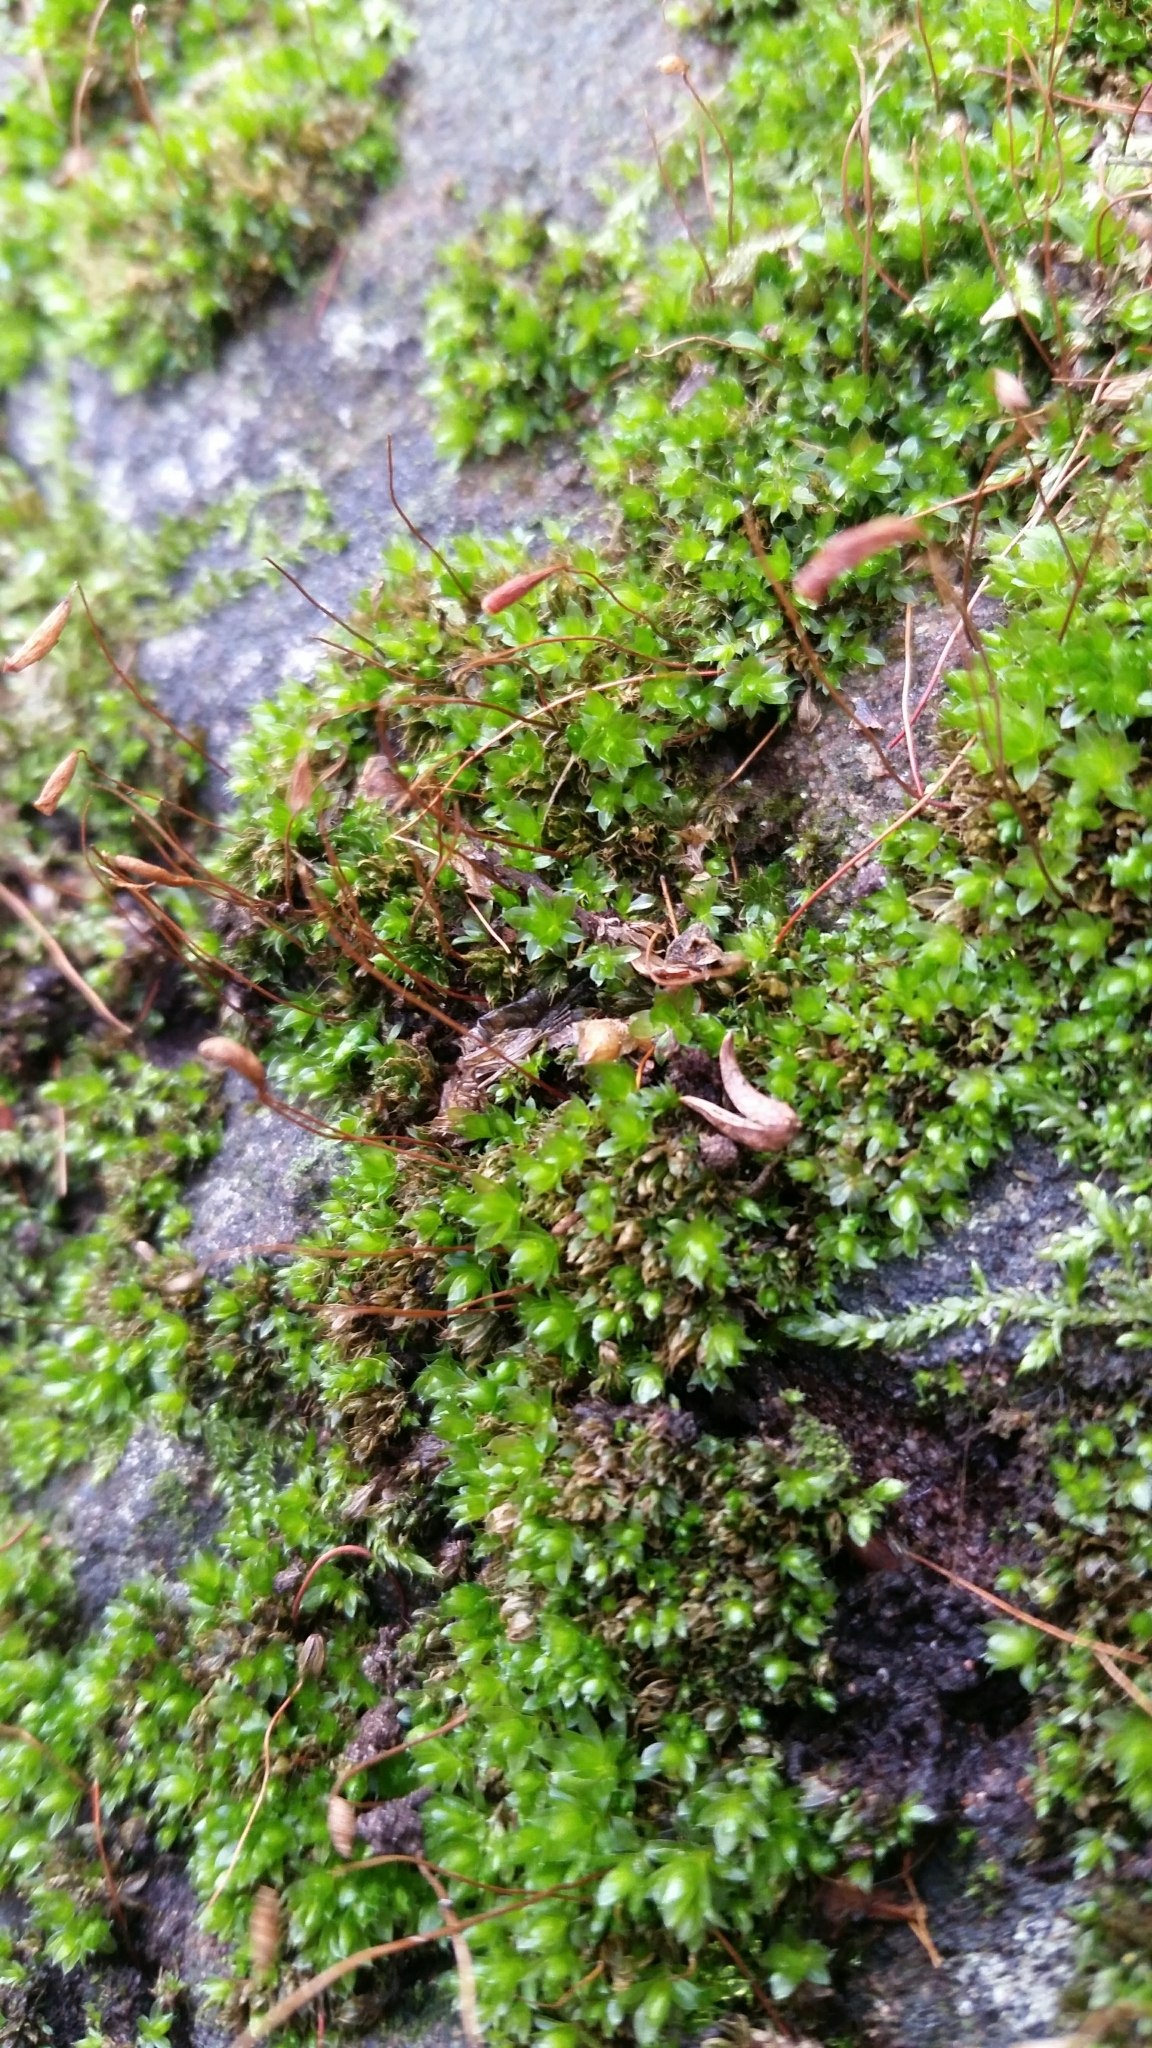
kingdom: Plantae
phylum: Bryophyta
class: Bryopsida
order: Bryales
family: Bryaceae
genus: Rosulabryum
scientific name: Rosulabryum capillare
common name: Capillary thread-moss
